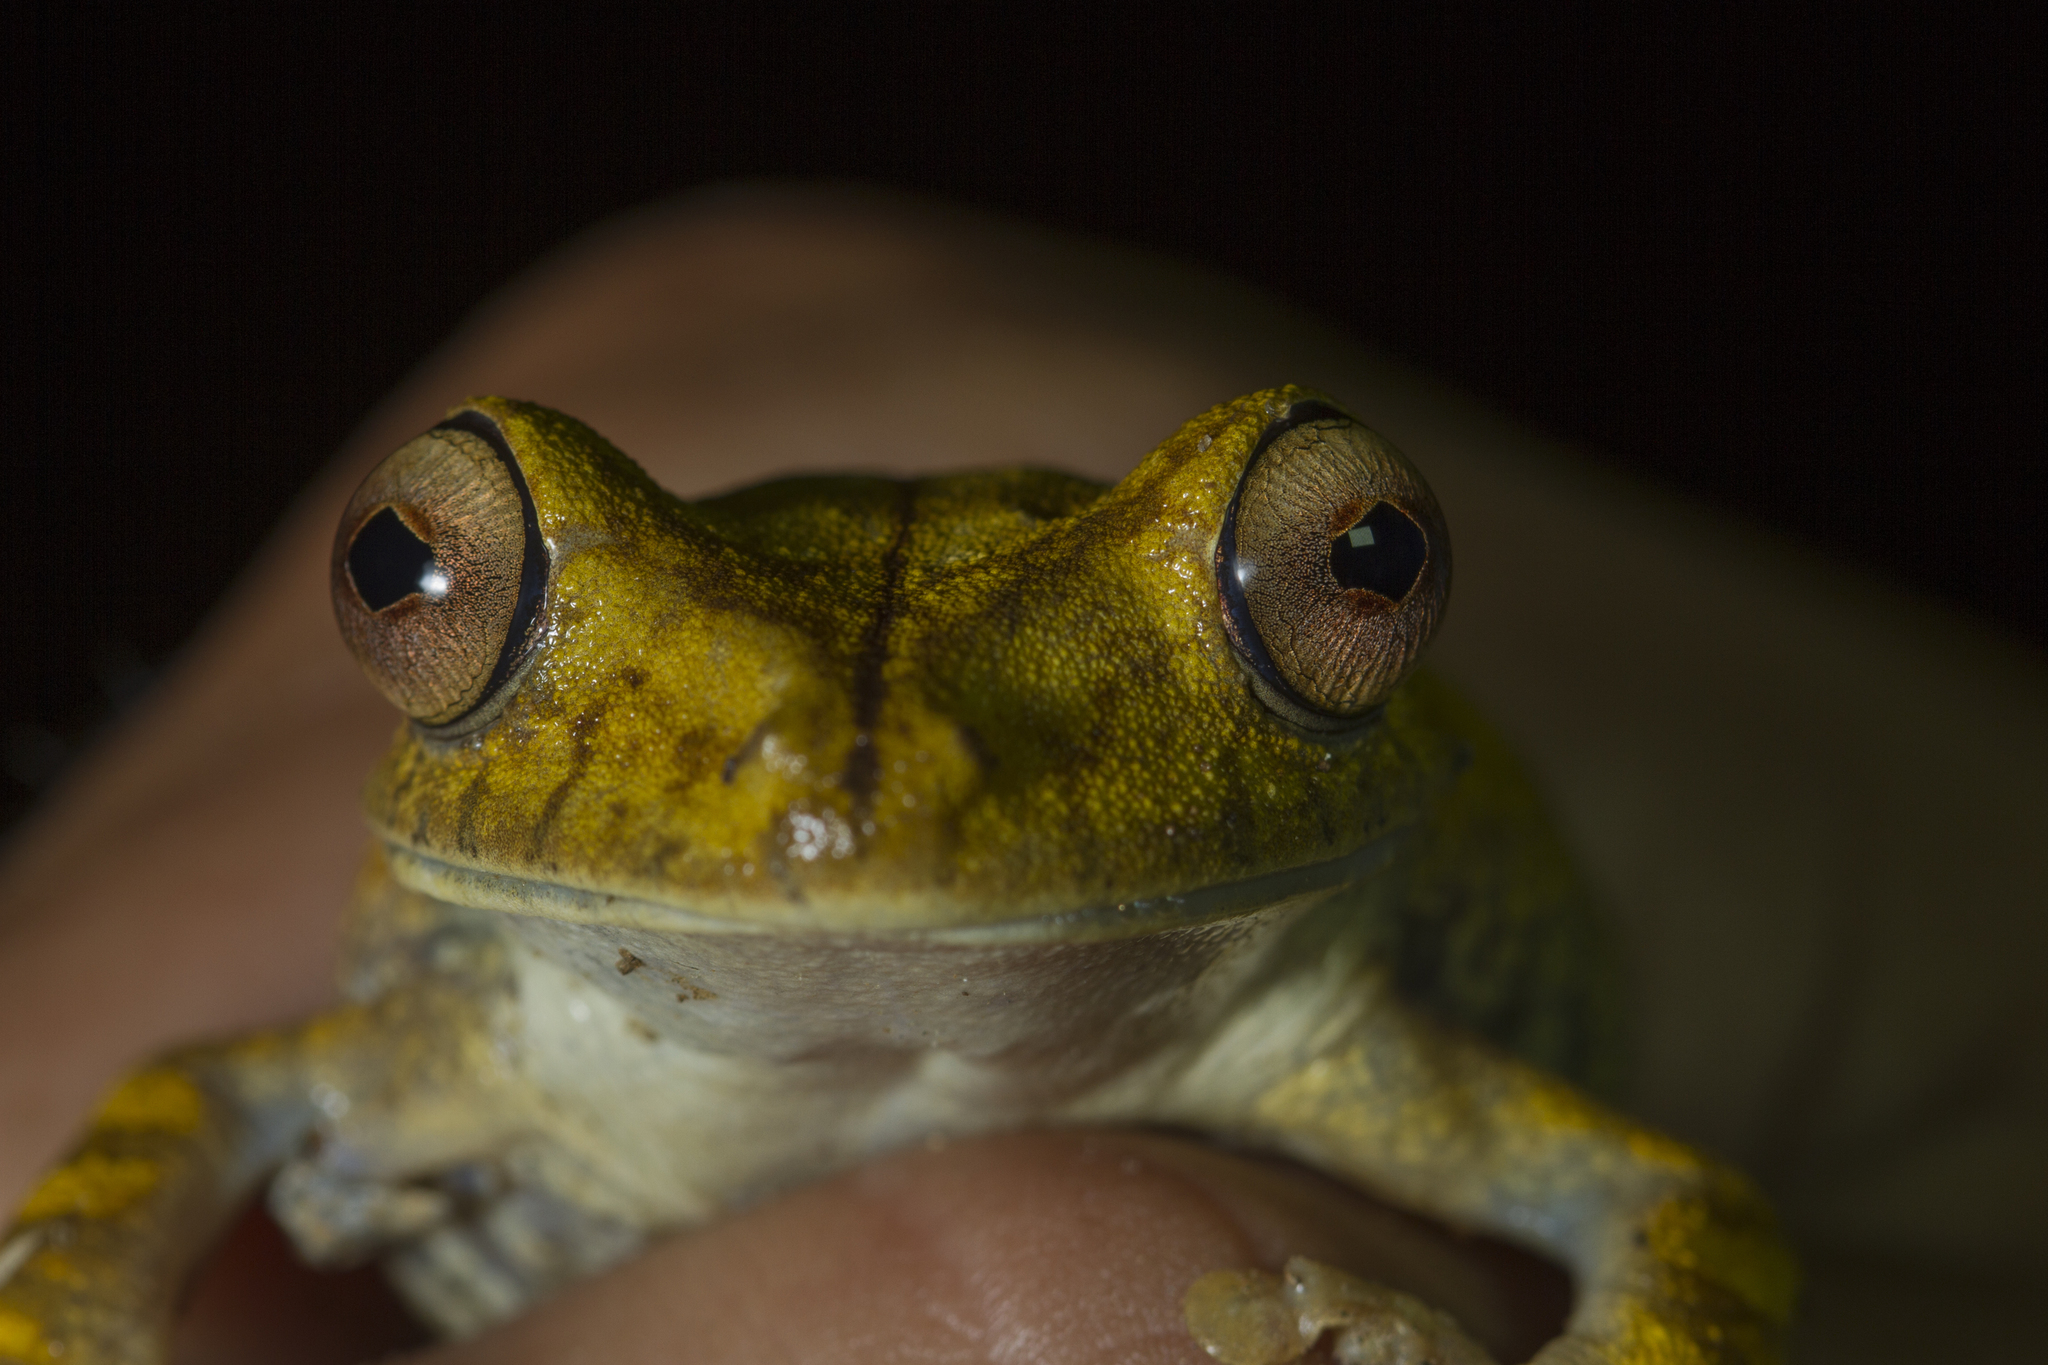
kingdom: Animalia
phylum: Chordata
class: Amphibia
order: Anura
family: Hylidae
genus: Boana
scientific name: Boana boans
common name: Giant gladiator treefrog
